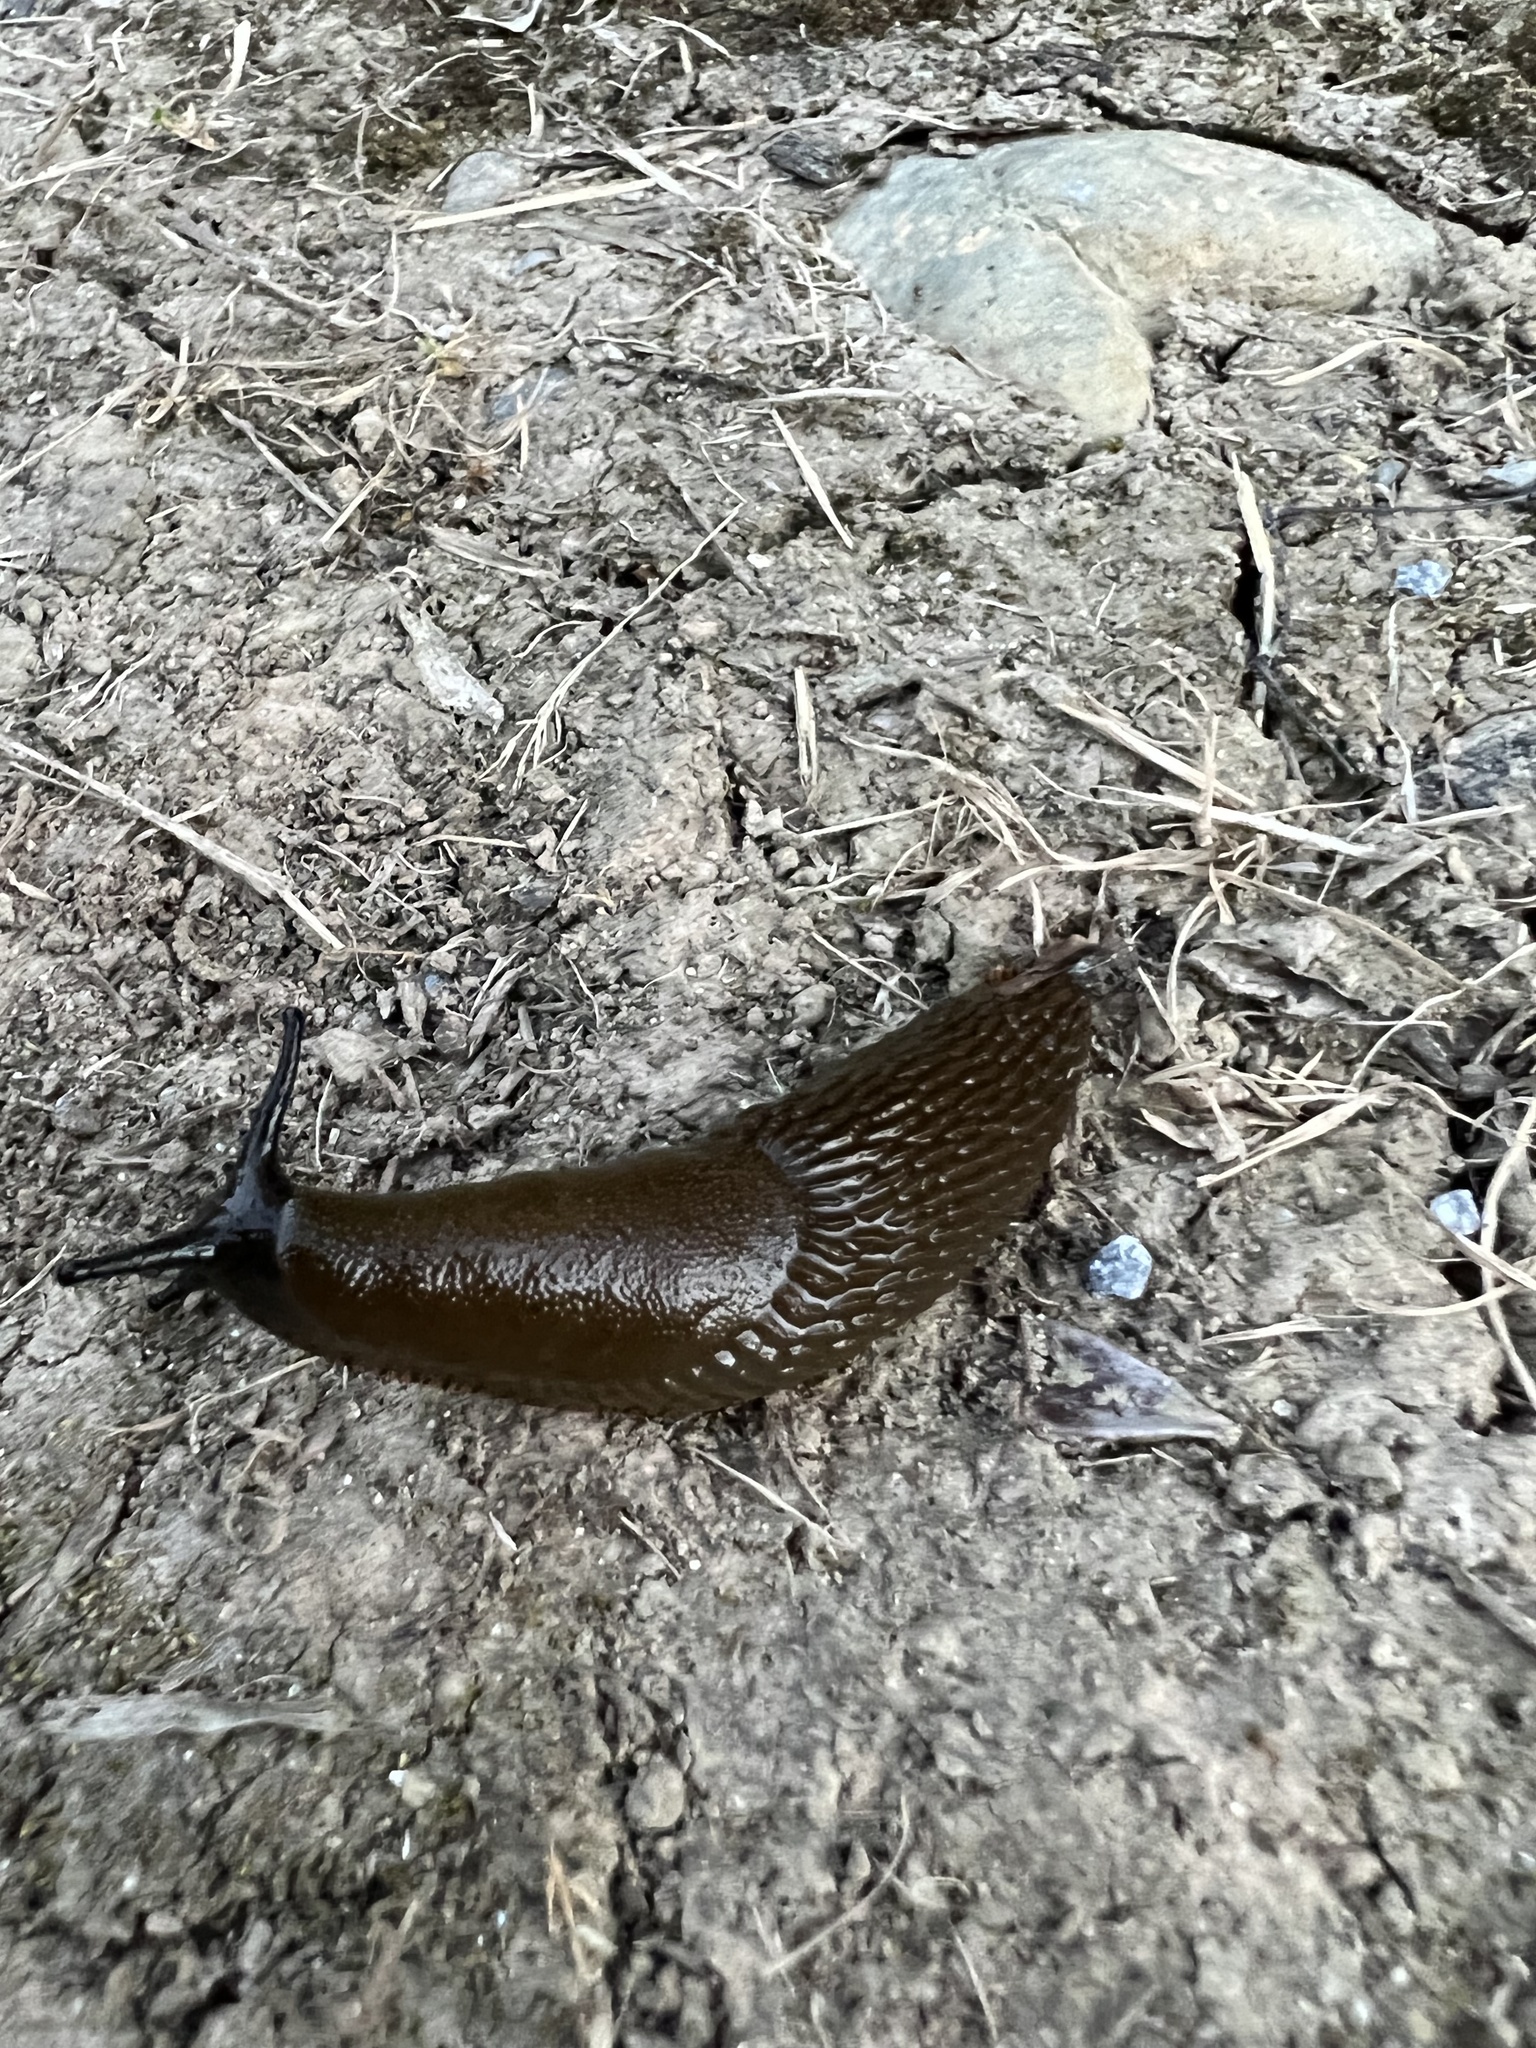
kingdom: Animalia
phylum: Mollusca
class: Gastropoda
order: Stylommatophora
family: Arionidae
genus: Arion
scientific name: Arion
